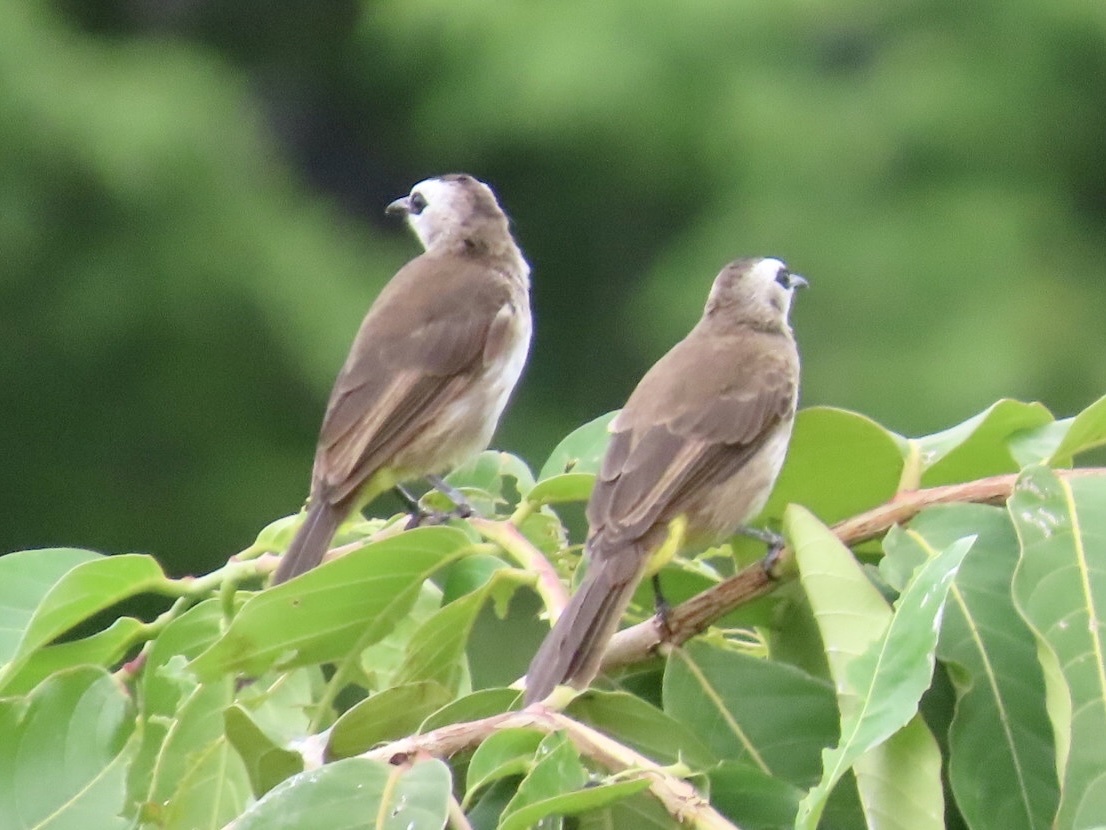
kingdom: Animalia
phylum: Chordata
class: Aves
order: Passeriformes
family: Pycnonotidae
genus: Pycnonotus
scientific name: Pycnonotus goiavier
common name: Yellow-vented bulbul
